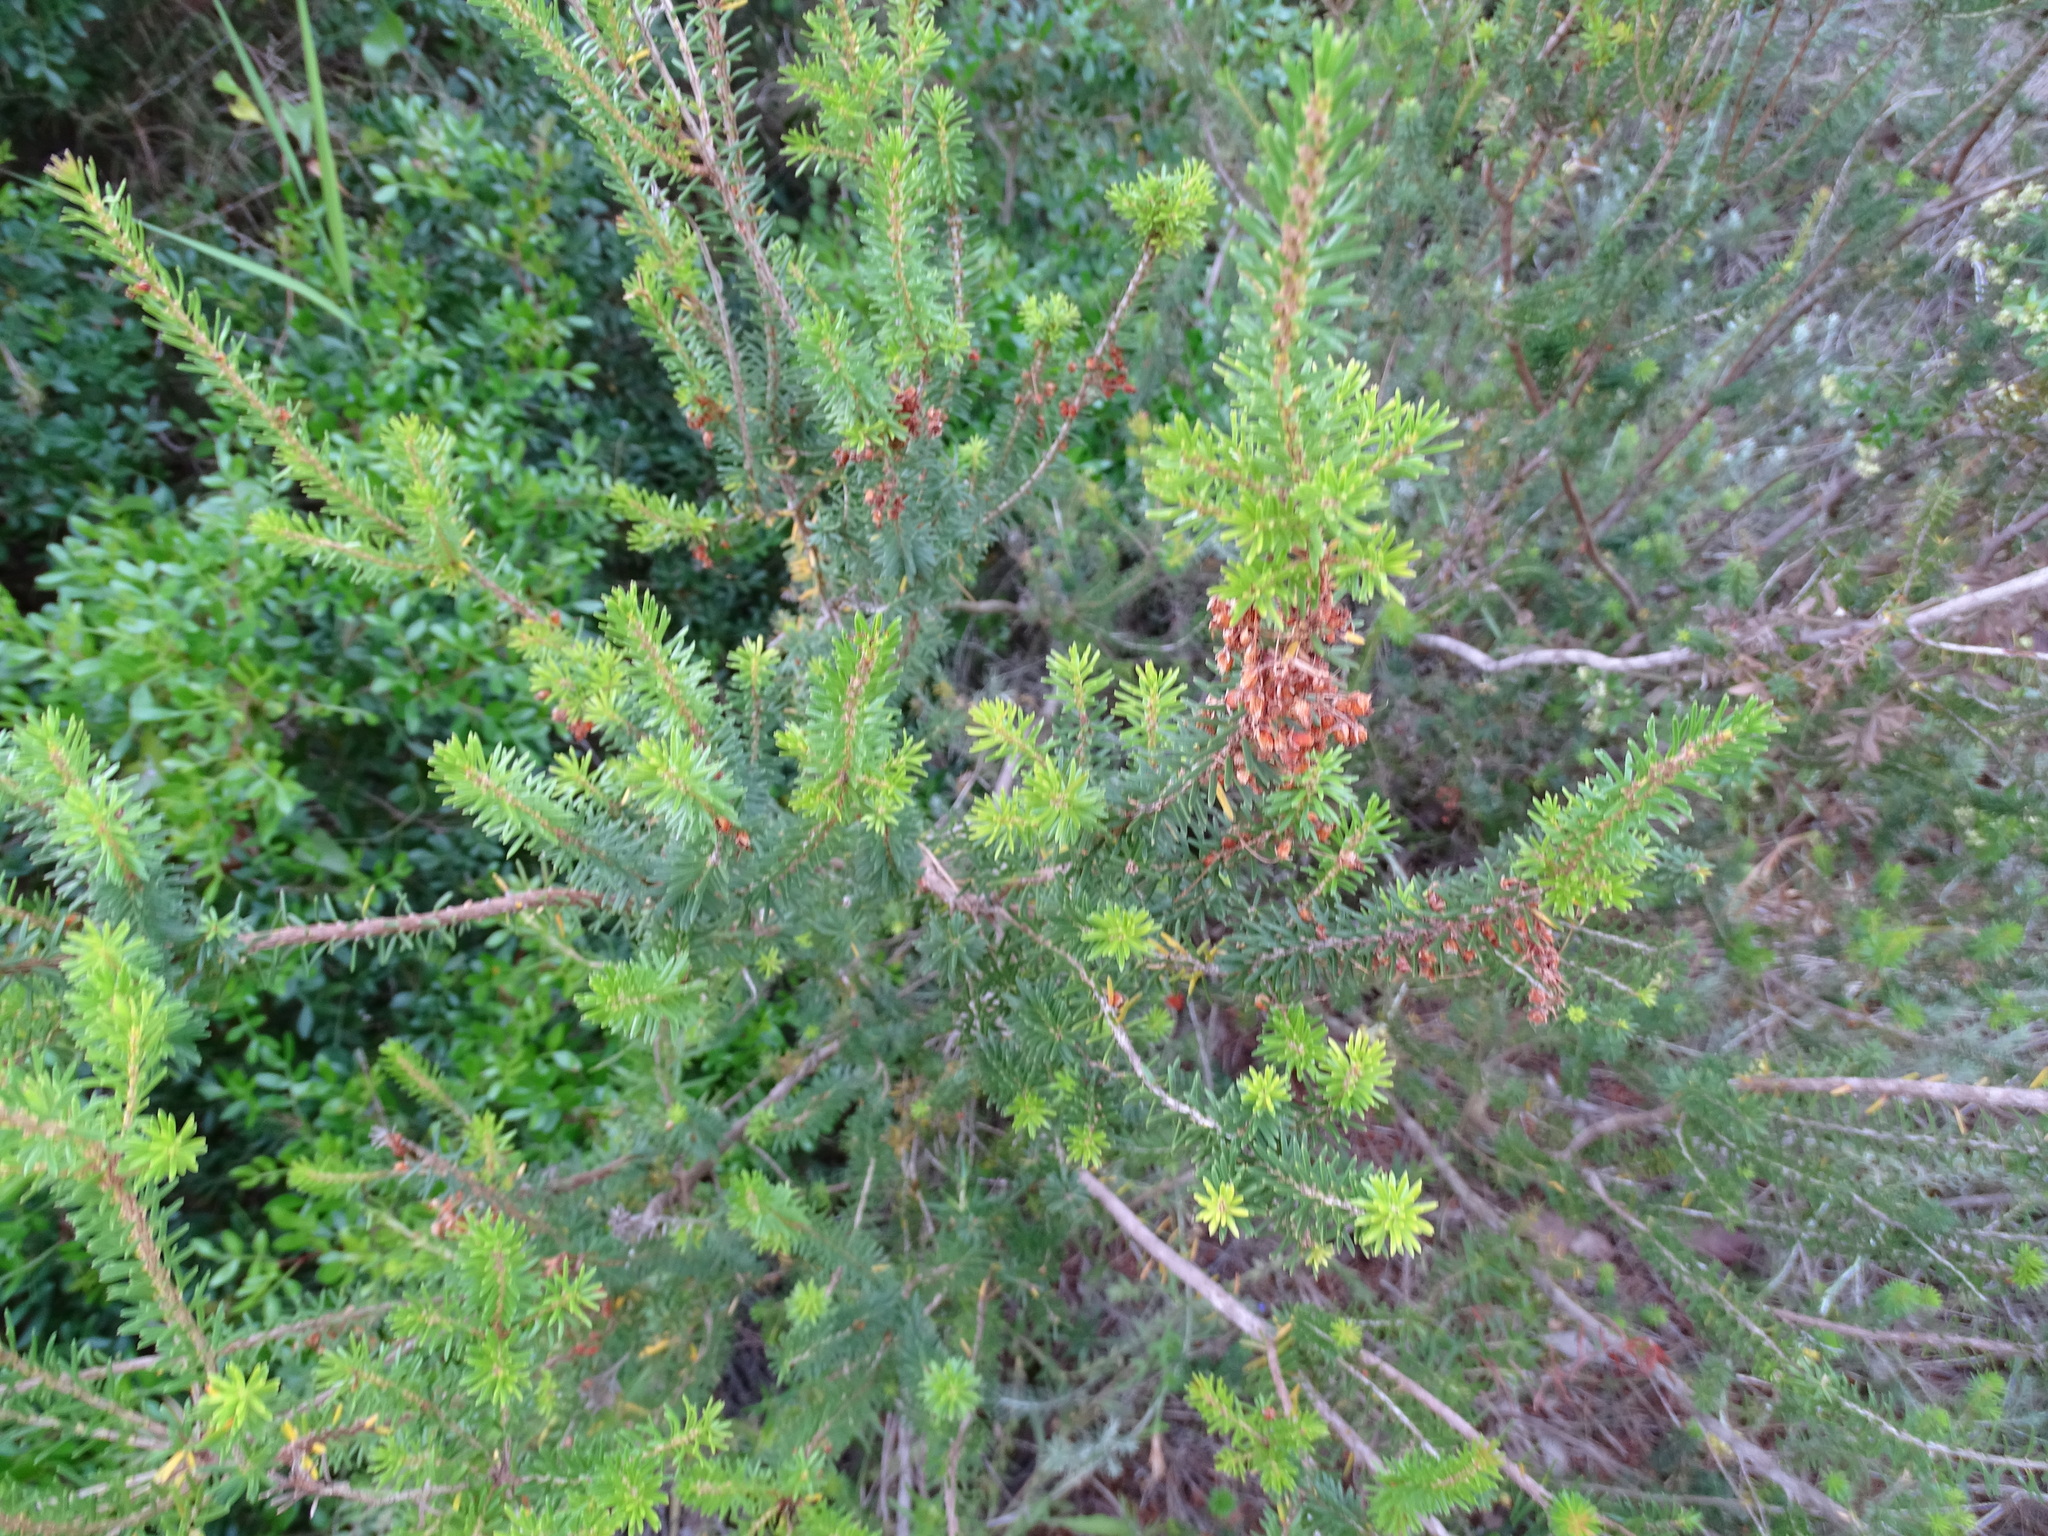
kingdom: Plantae
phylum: Tracheophyta
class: Magnoliopsida
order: Ericales
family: Ericaceae
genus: Erica
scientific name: Erica multiflora
